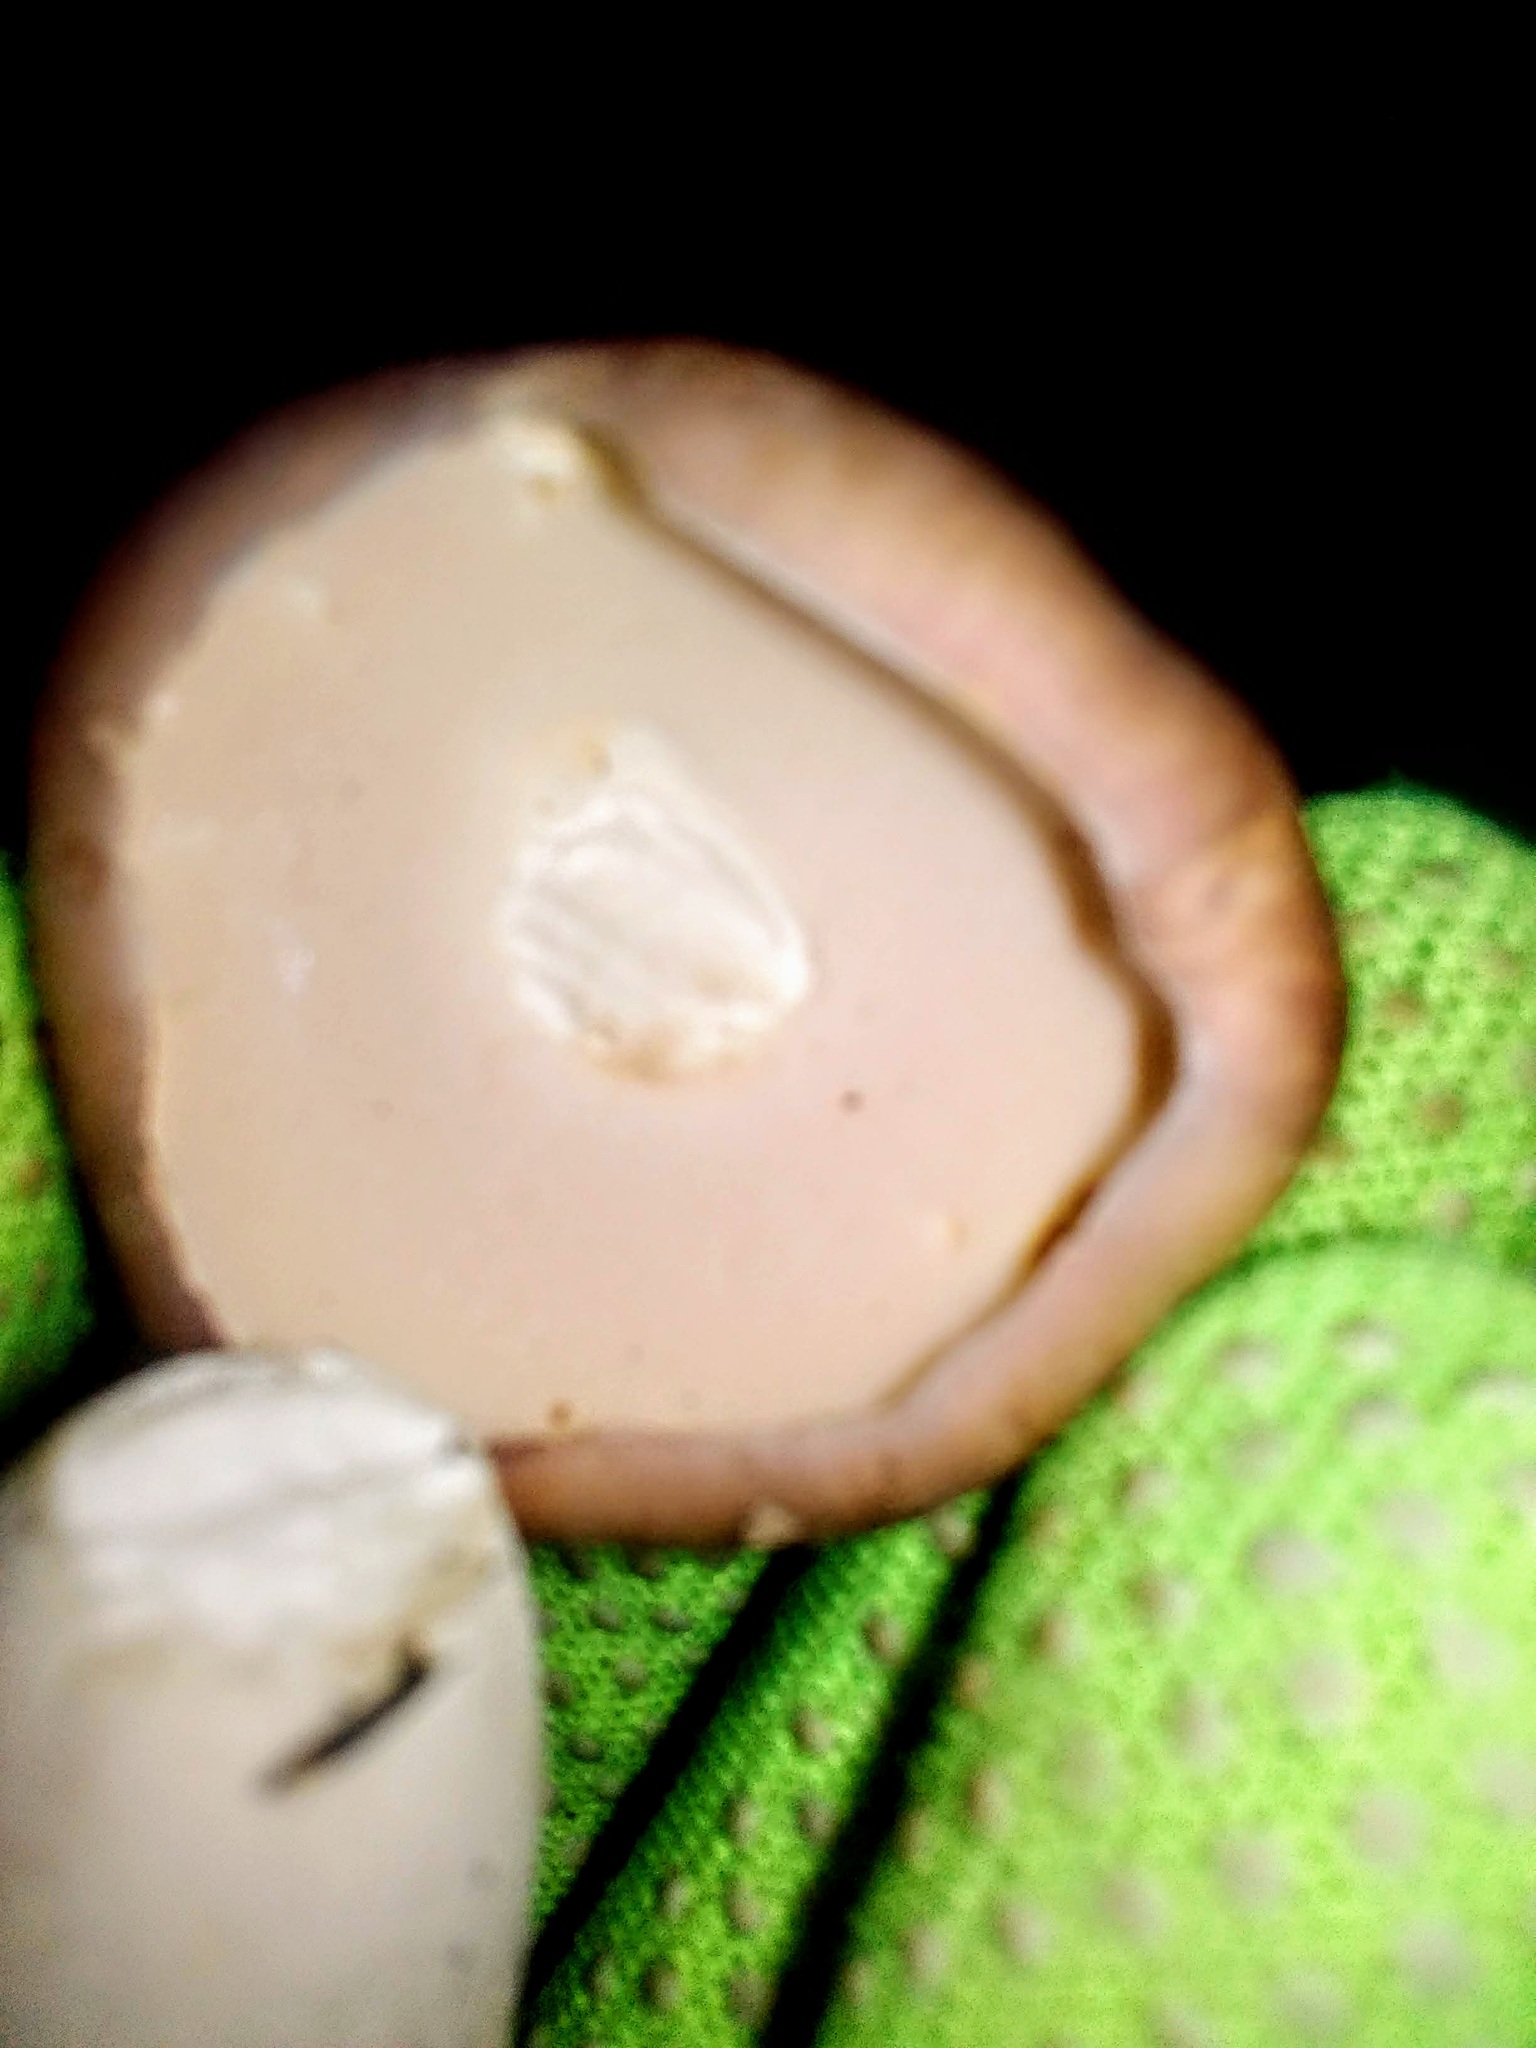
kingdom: Fungi
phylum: Basidiomycota
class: Agaricomycetes
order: Boletales
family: Boletaceae
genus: Boletus
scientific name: Boletus edulis
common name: Cep
